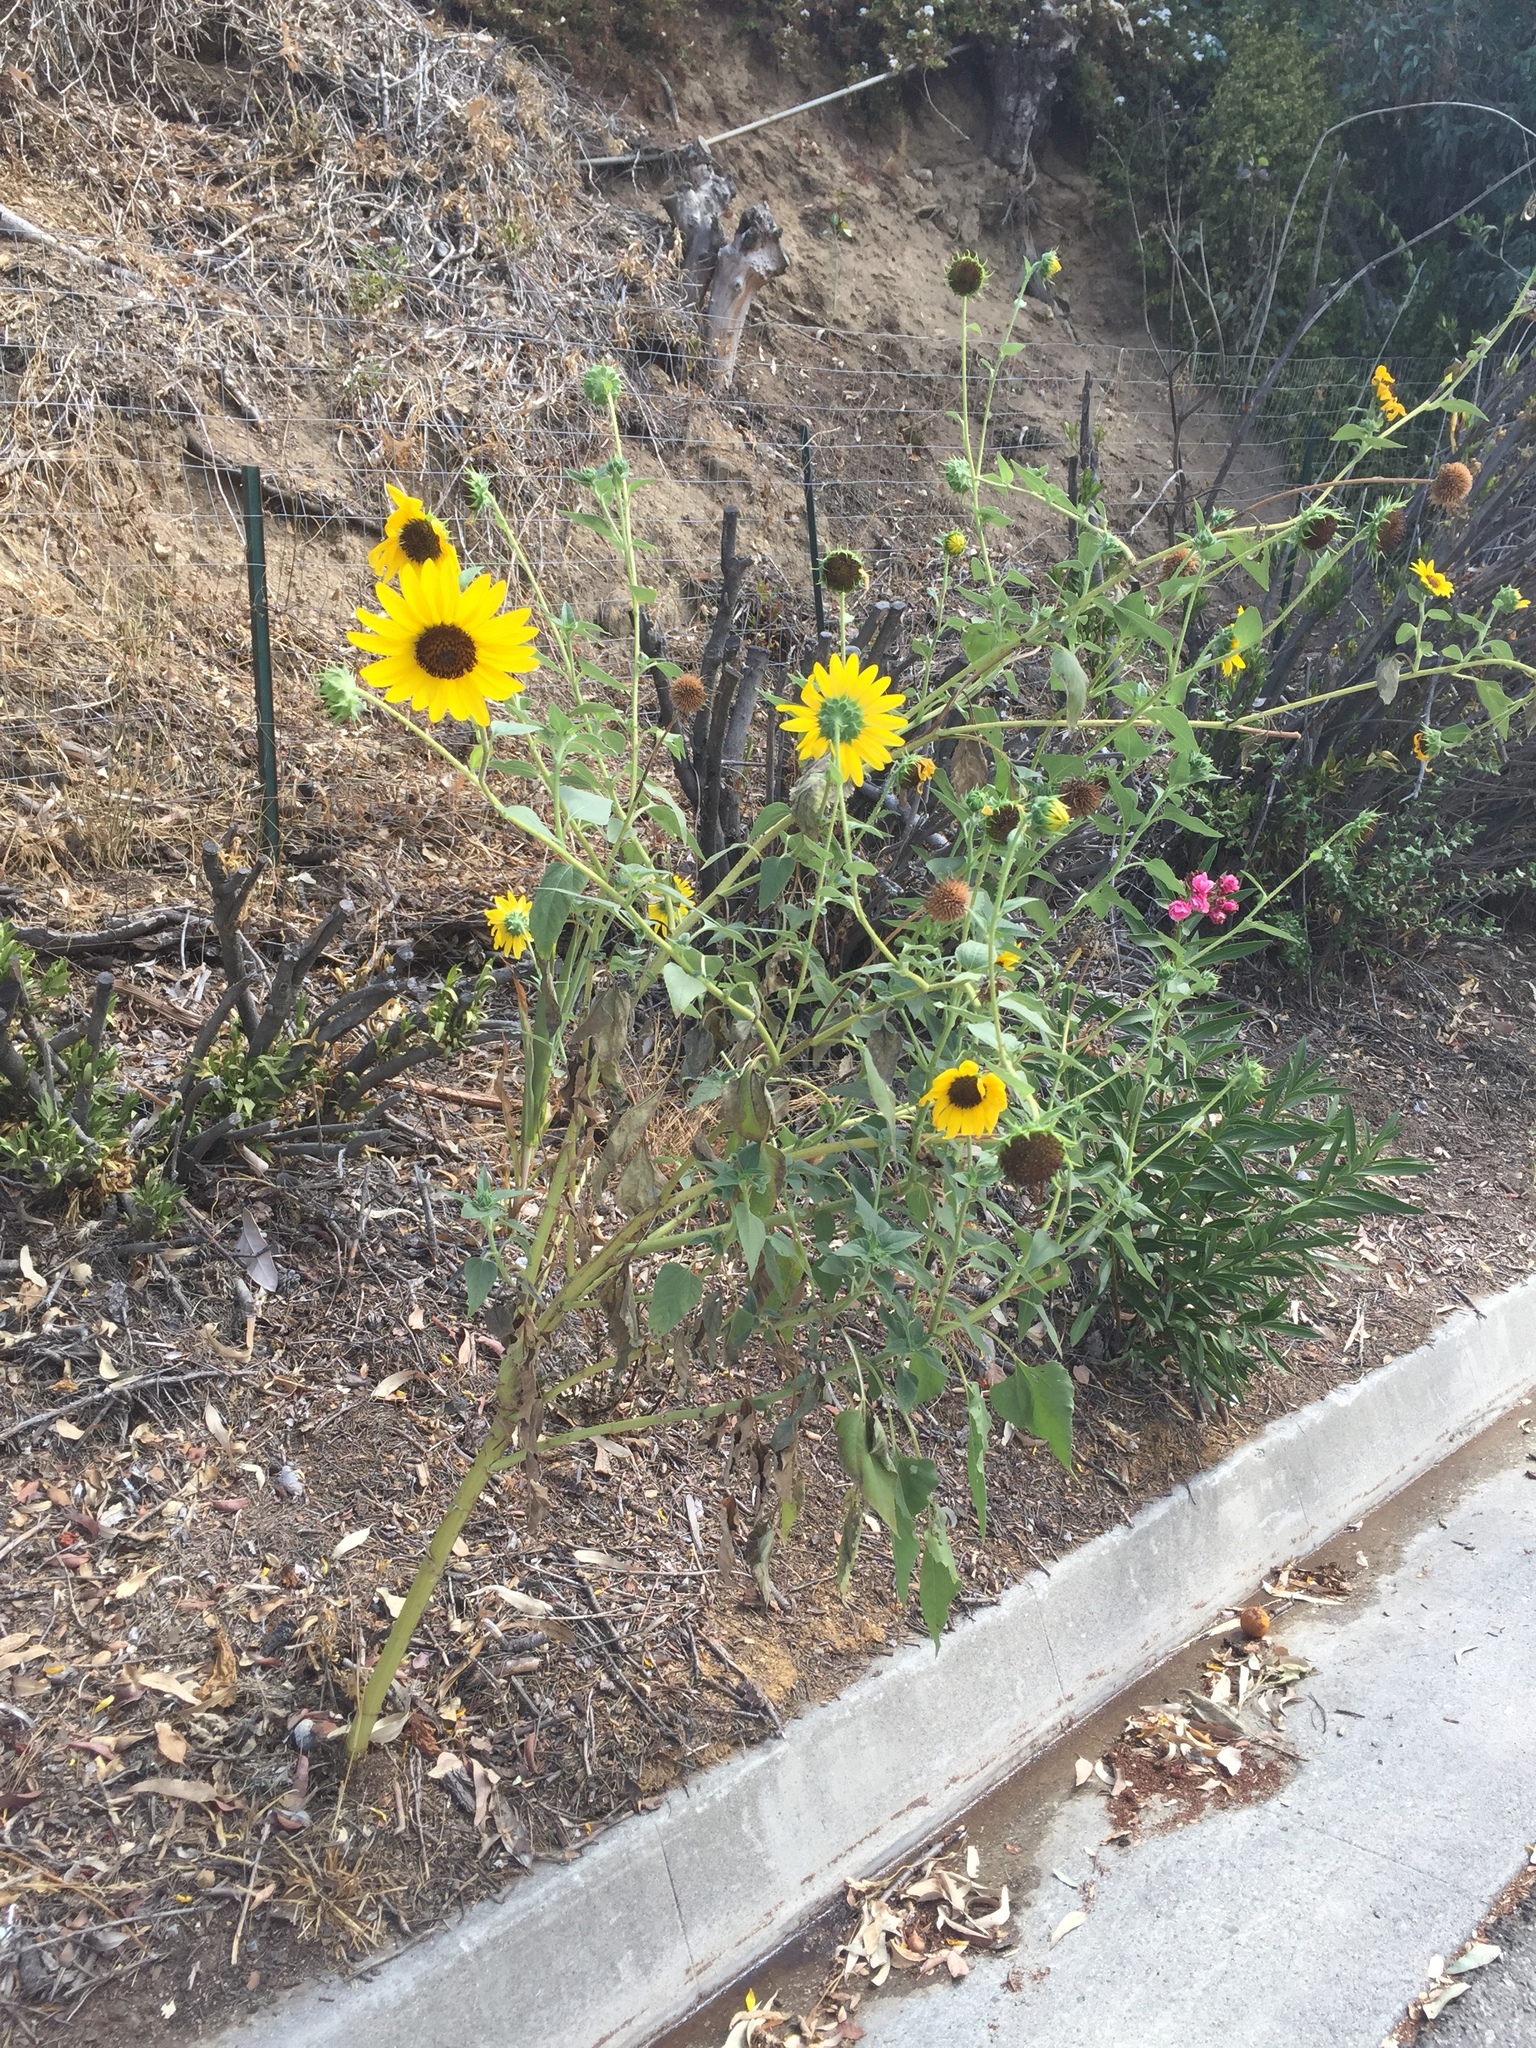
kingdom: Plantae
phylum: Tracheophyta
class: Magnoliopsida
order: Asterales
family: Asteraceae
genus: Helianthus
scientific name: Helianthus annuus
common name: Sunflower
